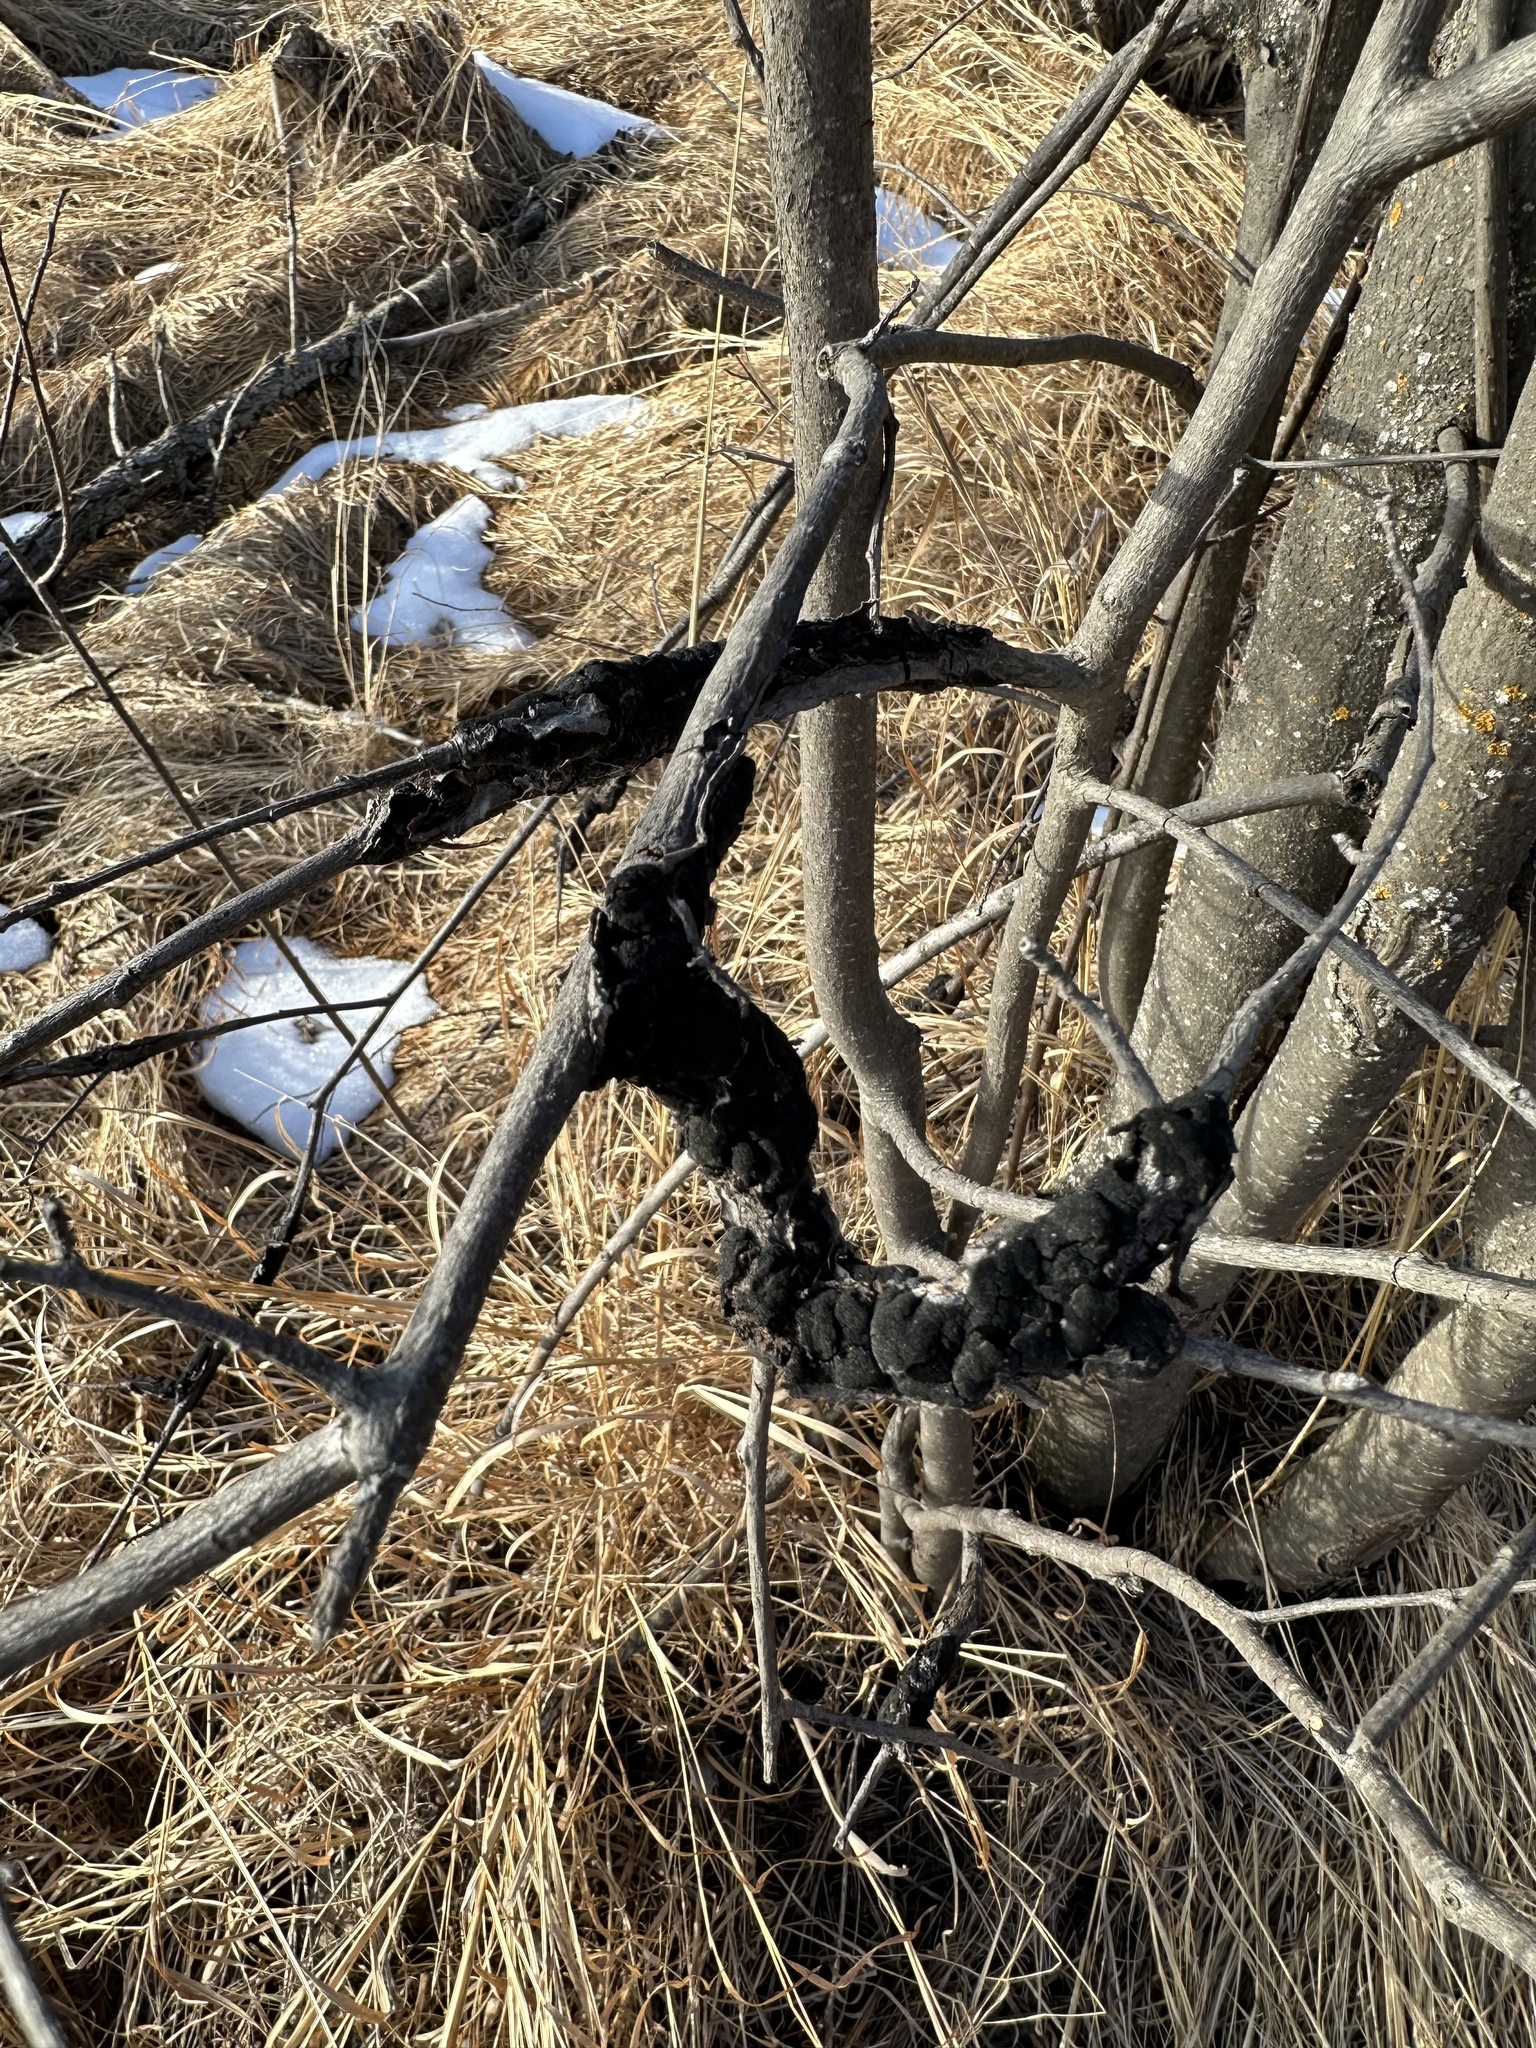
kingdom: Fungi
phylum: Ascomycota
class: Dothideomycetes
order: Venturiales
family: Venturiaceae
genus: Apiosporina
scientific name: Apiosporina morbosa
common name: Black knot
